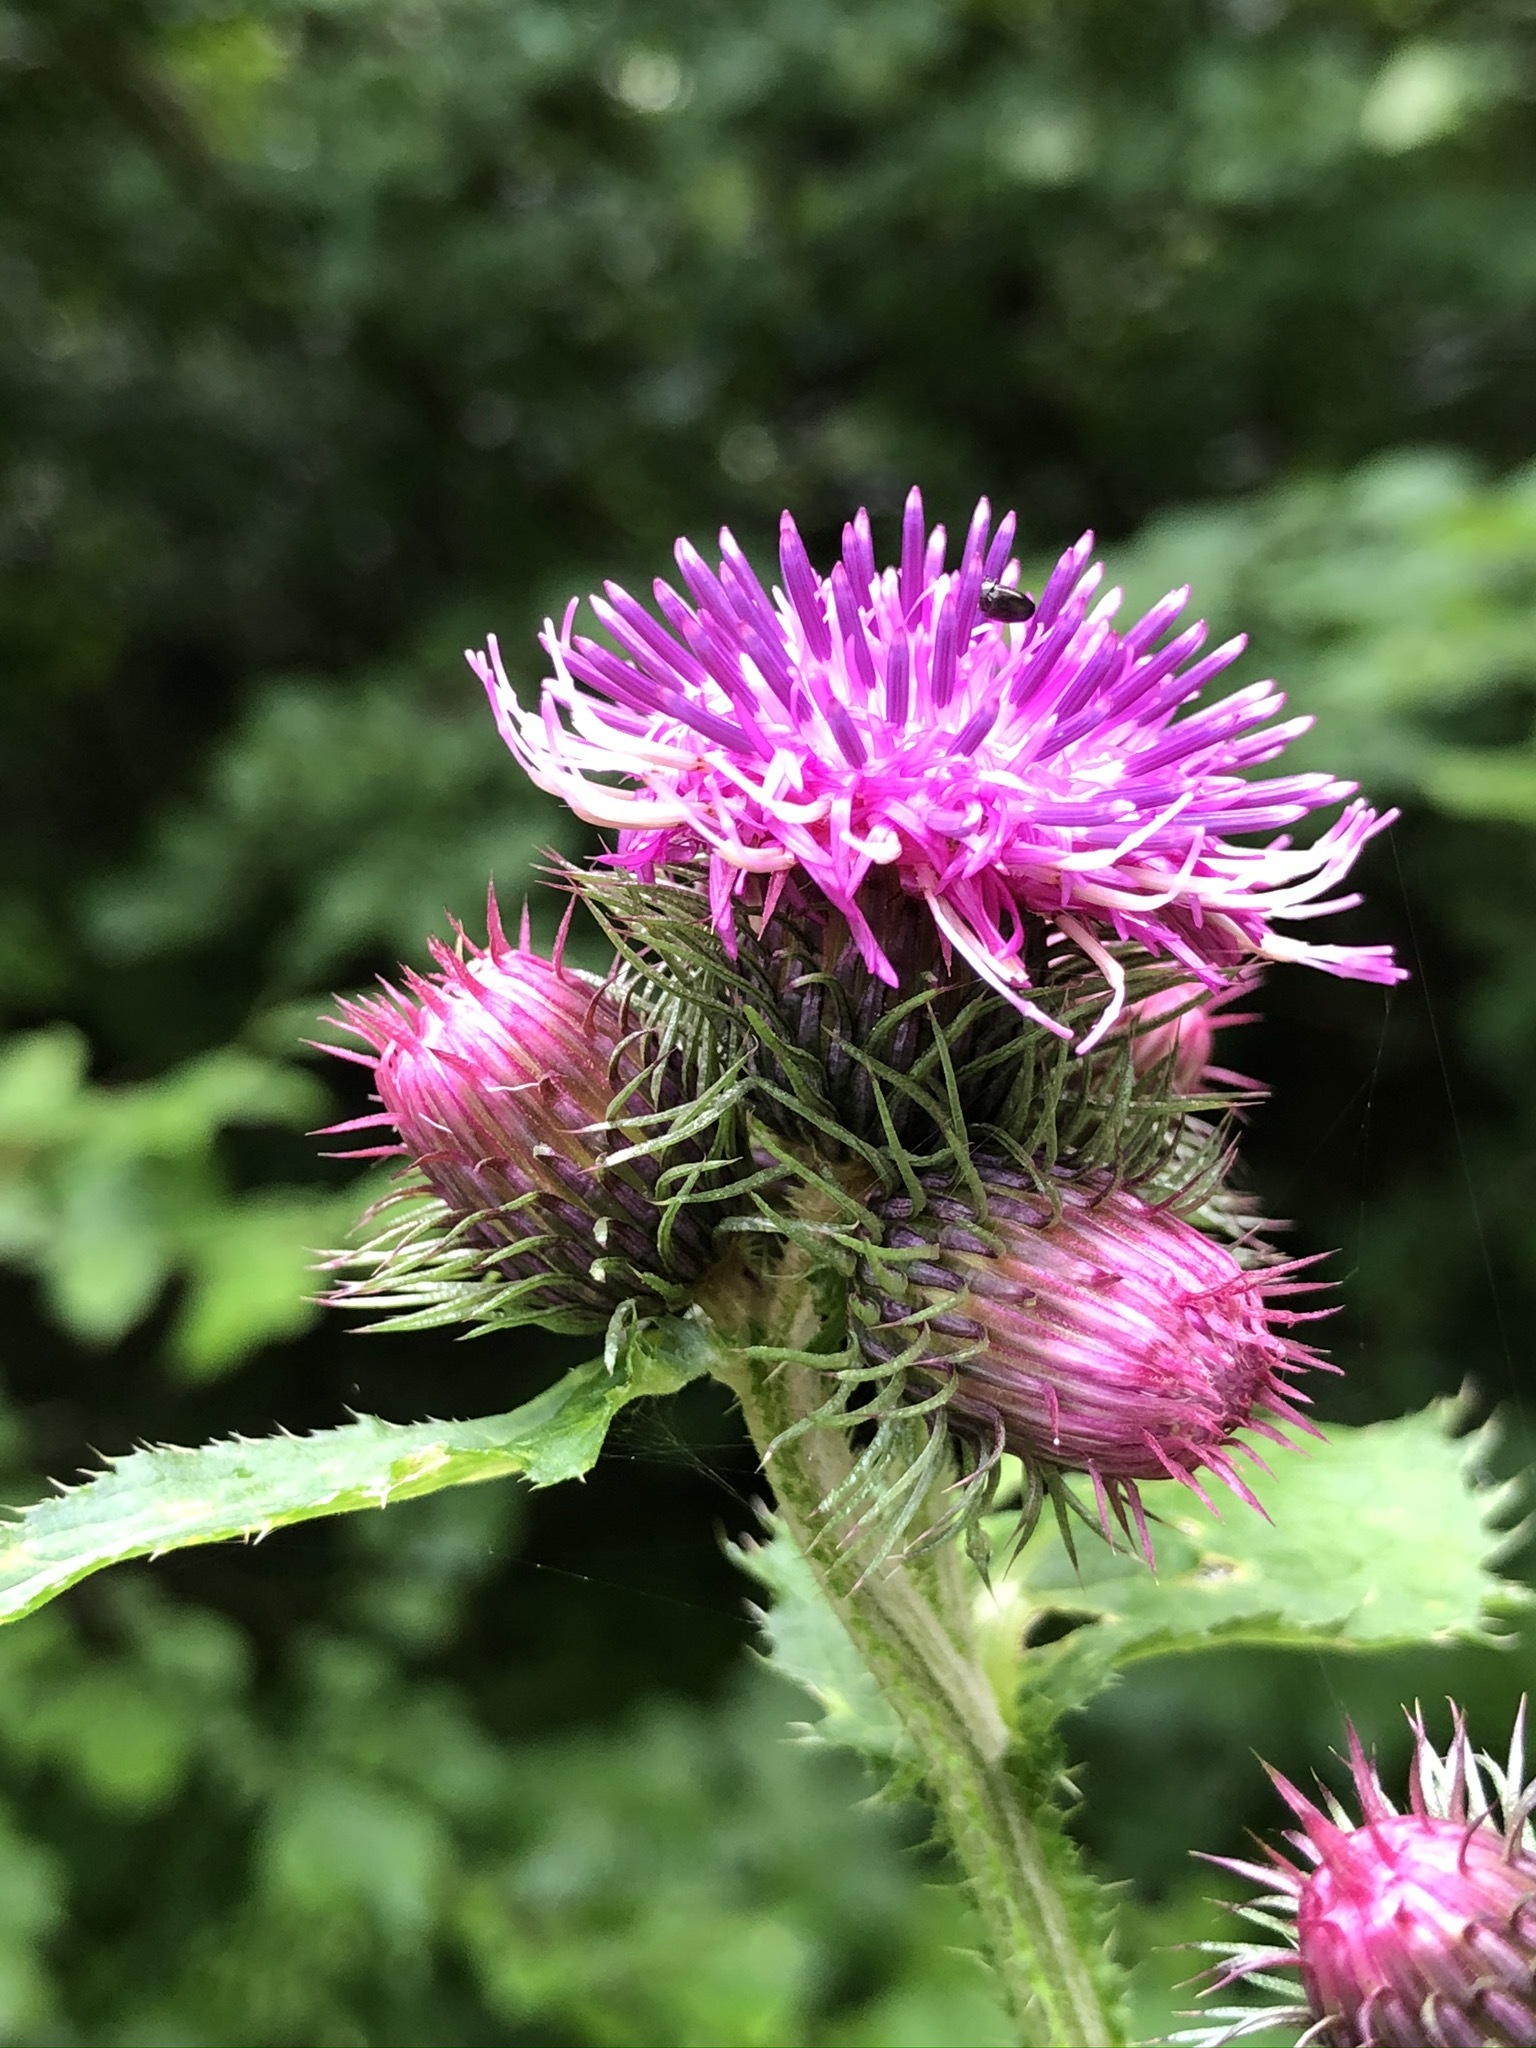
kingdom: Plantae
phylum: Tracheophyta
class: Magnoliopsida
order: Asterales
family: Asteraceae
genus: Carduus
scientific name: Carduus personata
